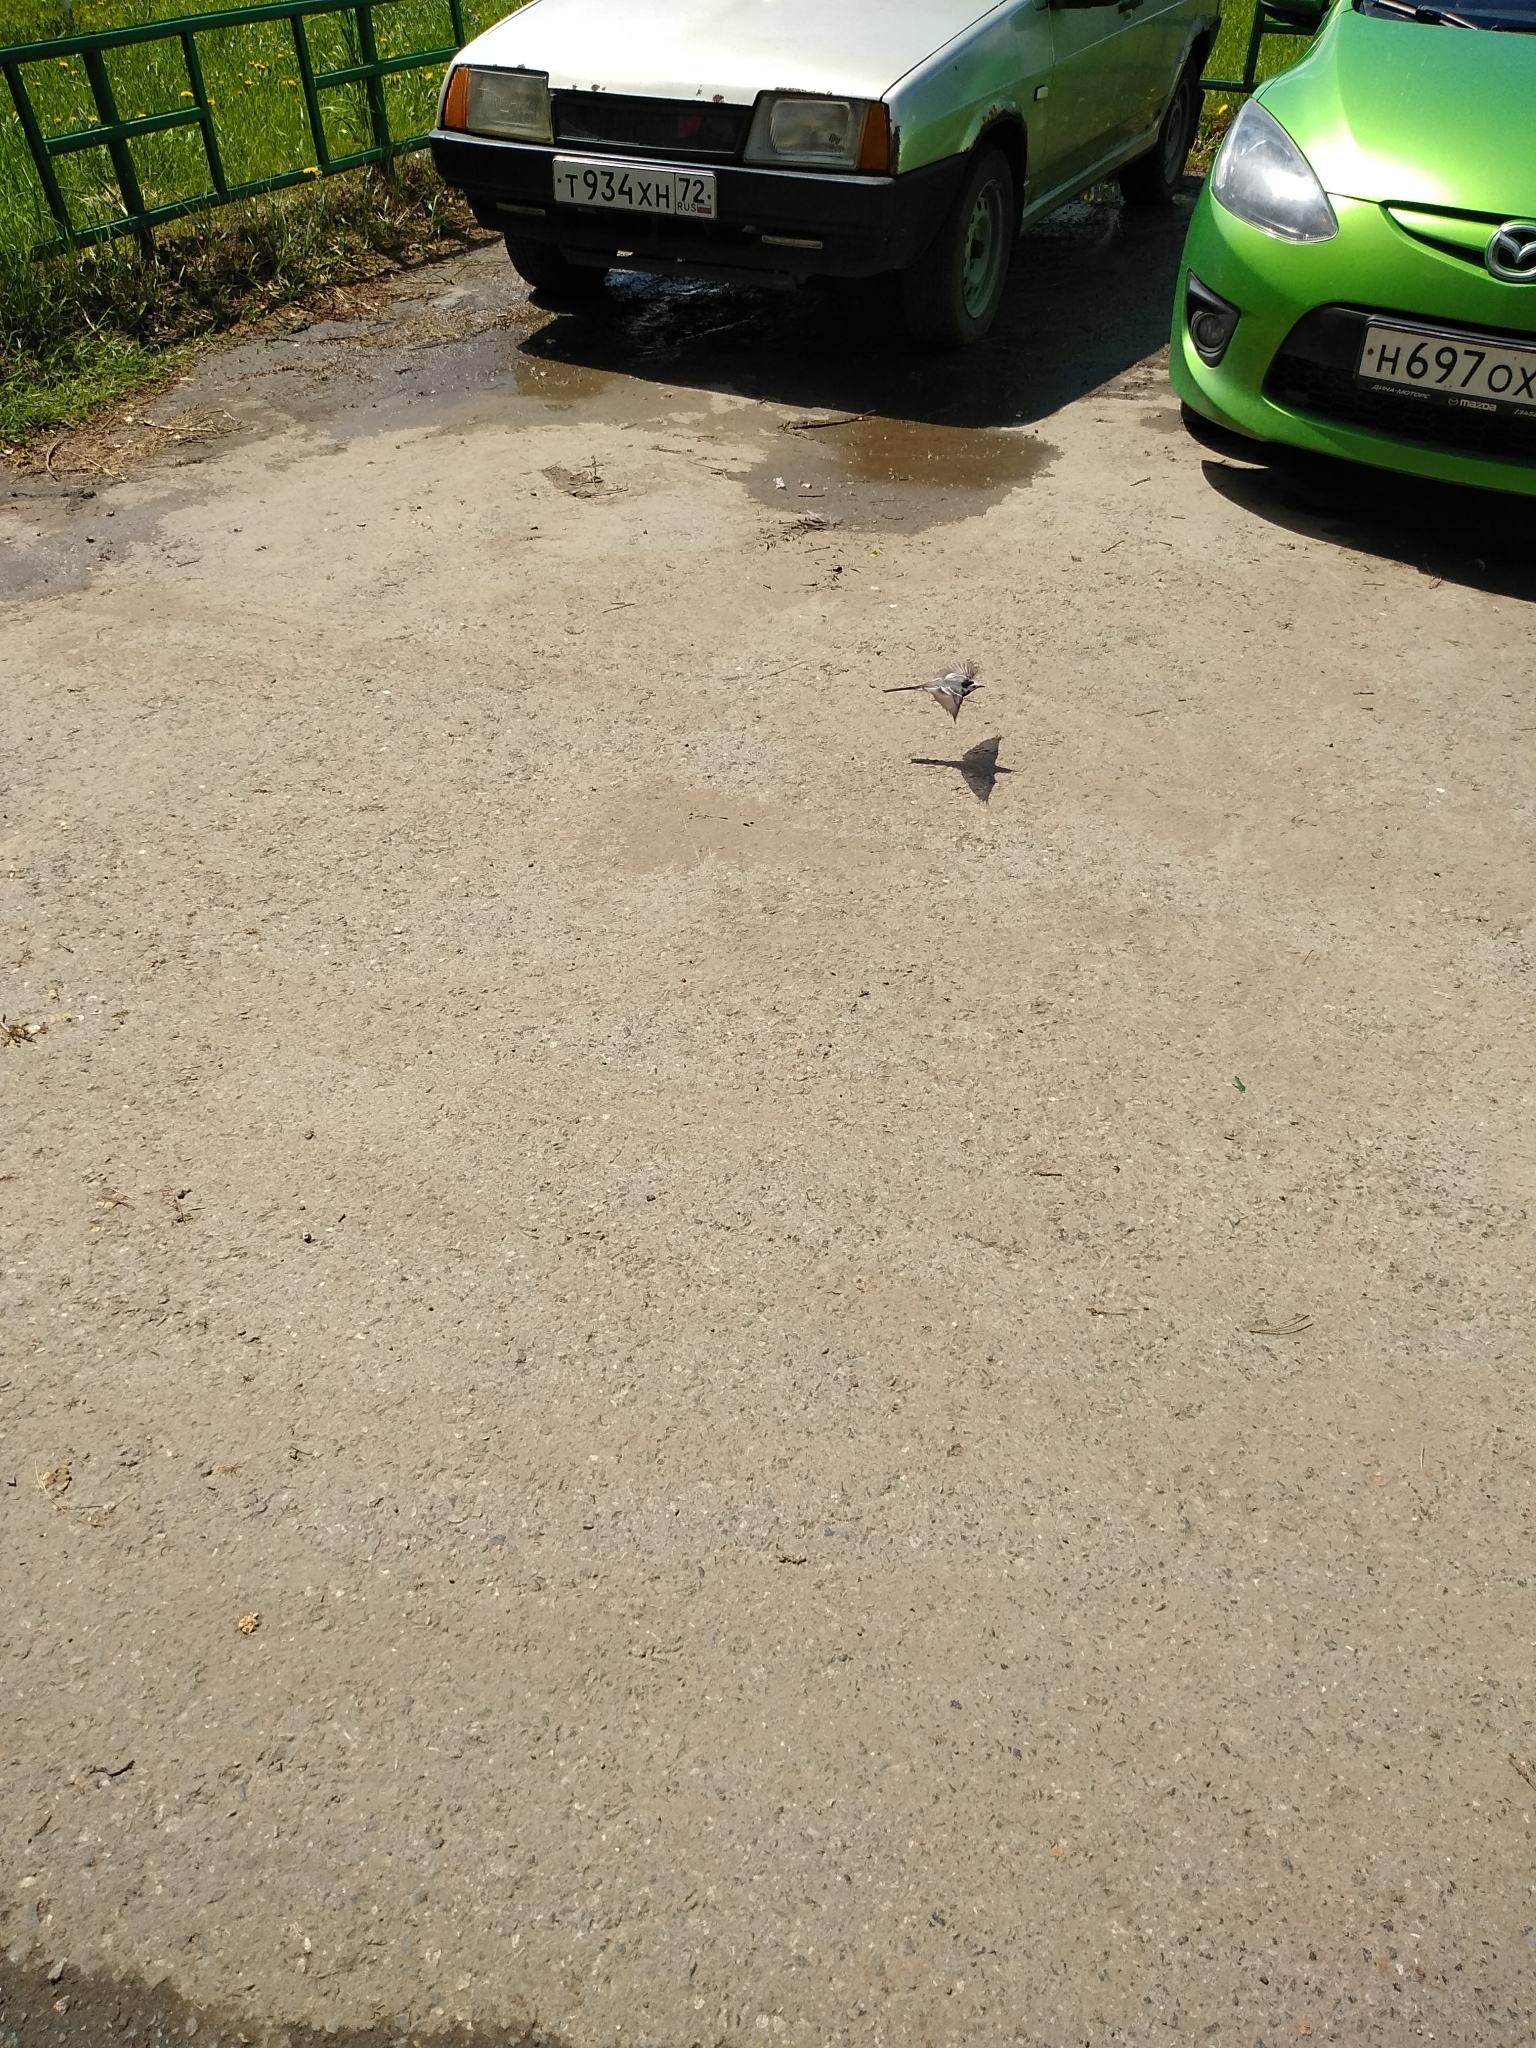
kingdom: Animalia
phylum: Chordata
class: Aves
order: Passeriformes
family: Motacillidae
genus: Motacilla
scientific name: Motacilla alba
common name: White wagtail
